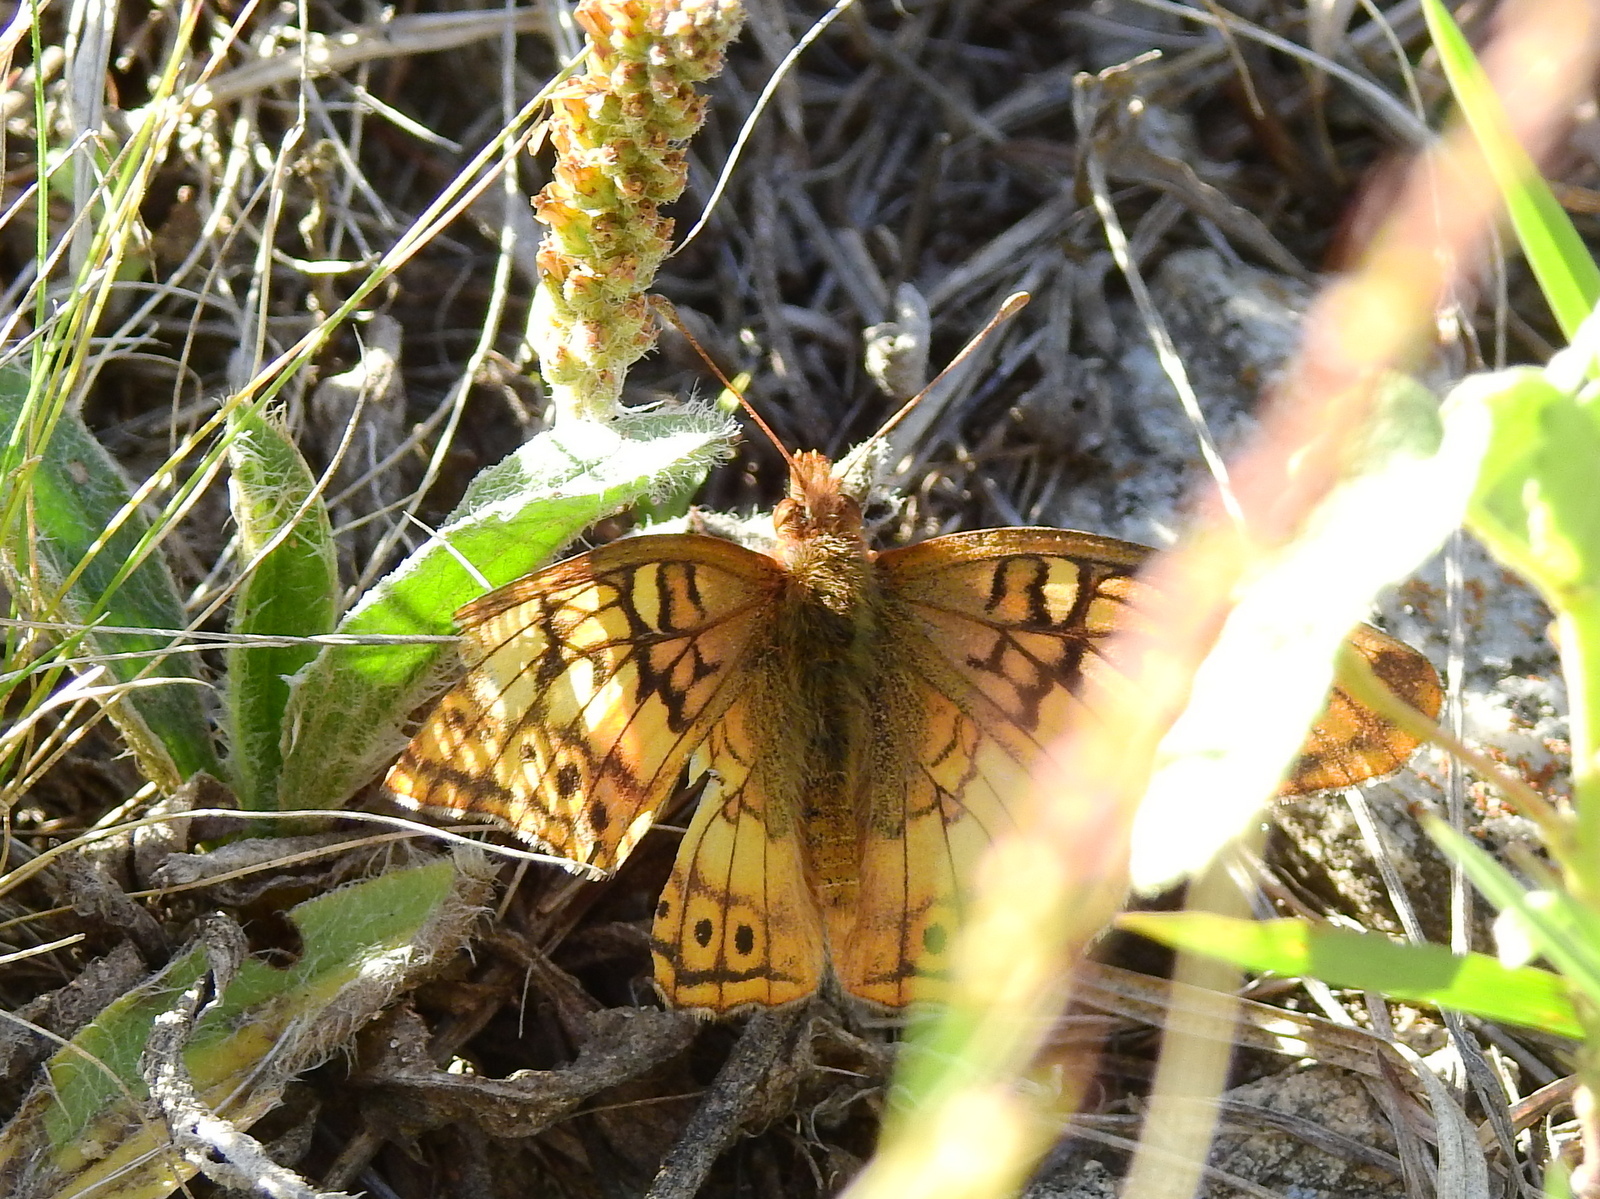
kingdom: Animalia
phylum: Arthropoda
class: Insecta
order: Lepidoptera
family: Nymphalidae
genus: Euptoieta
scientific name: Euptoieta hortensia
